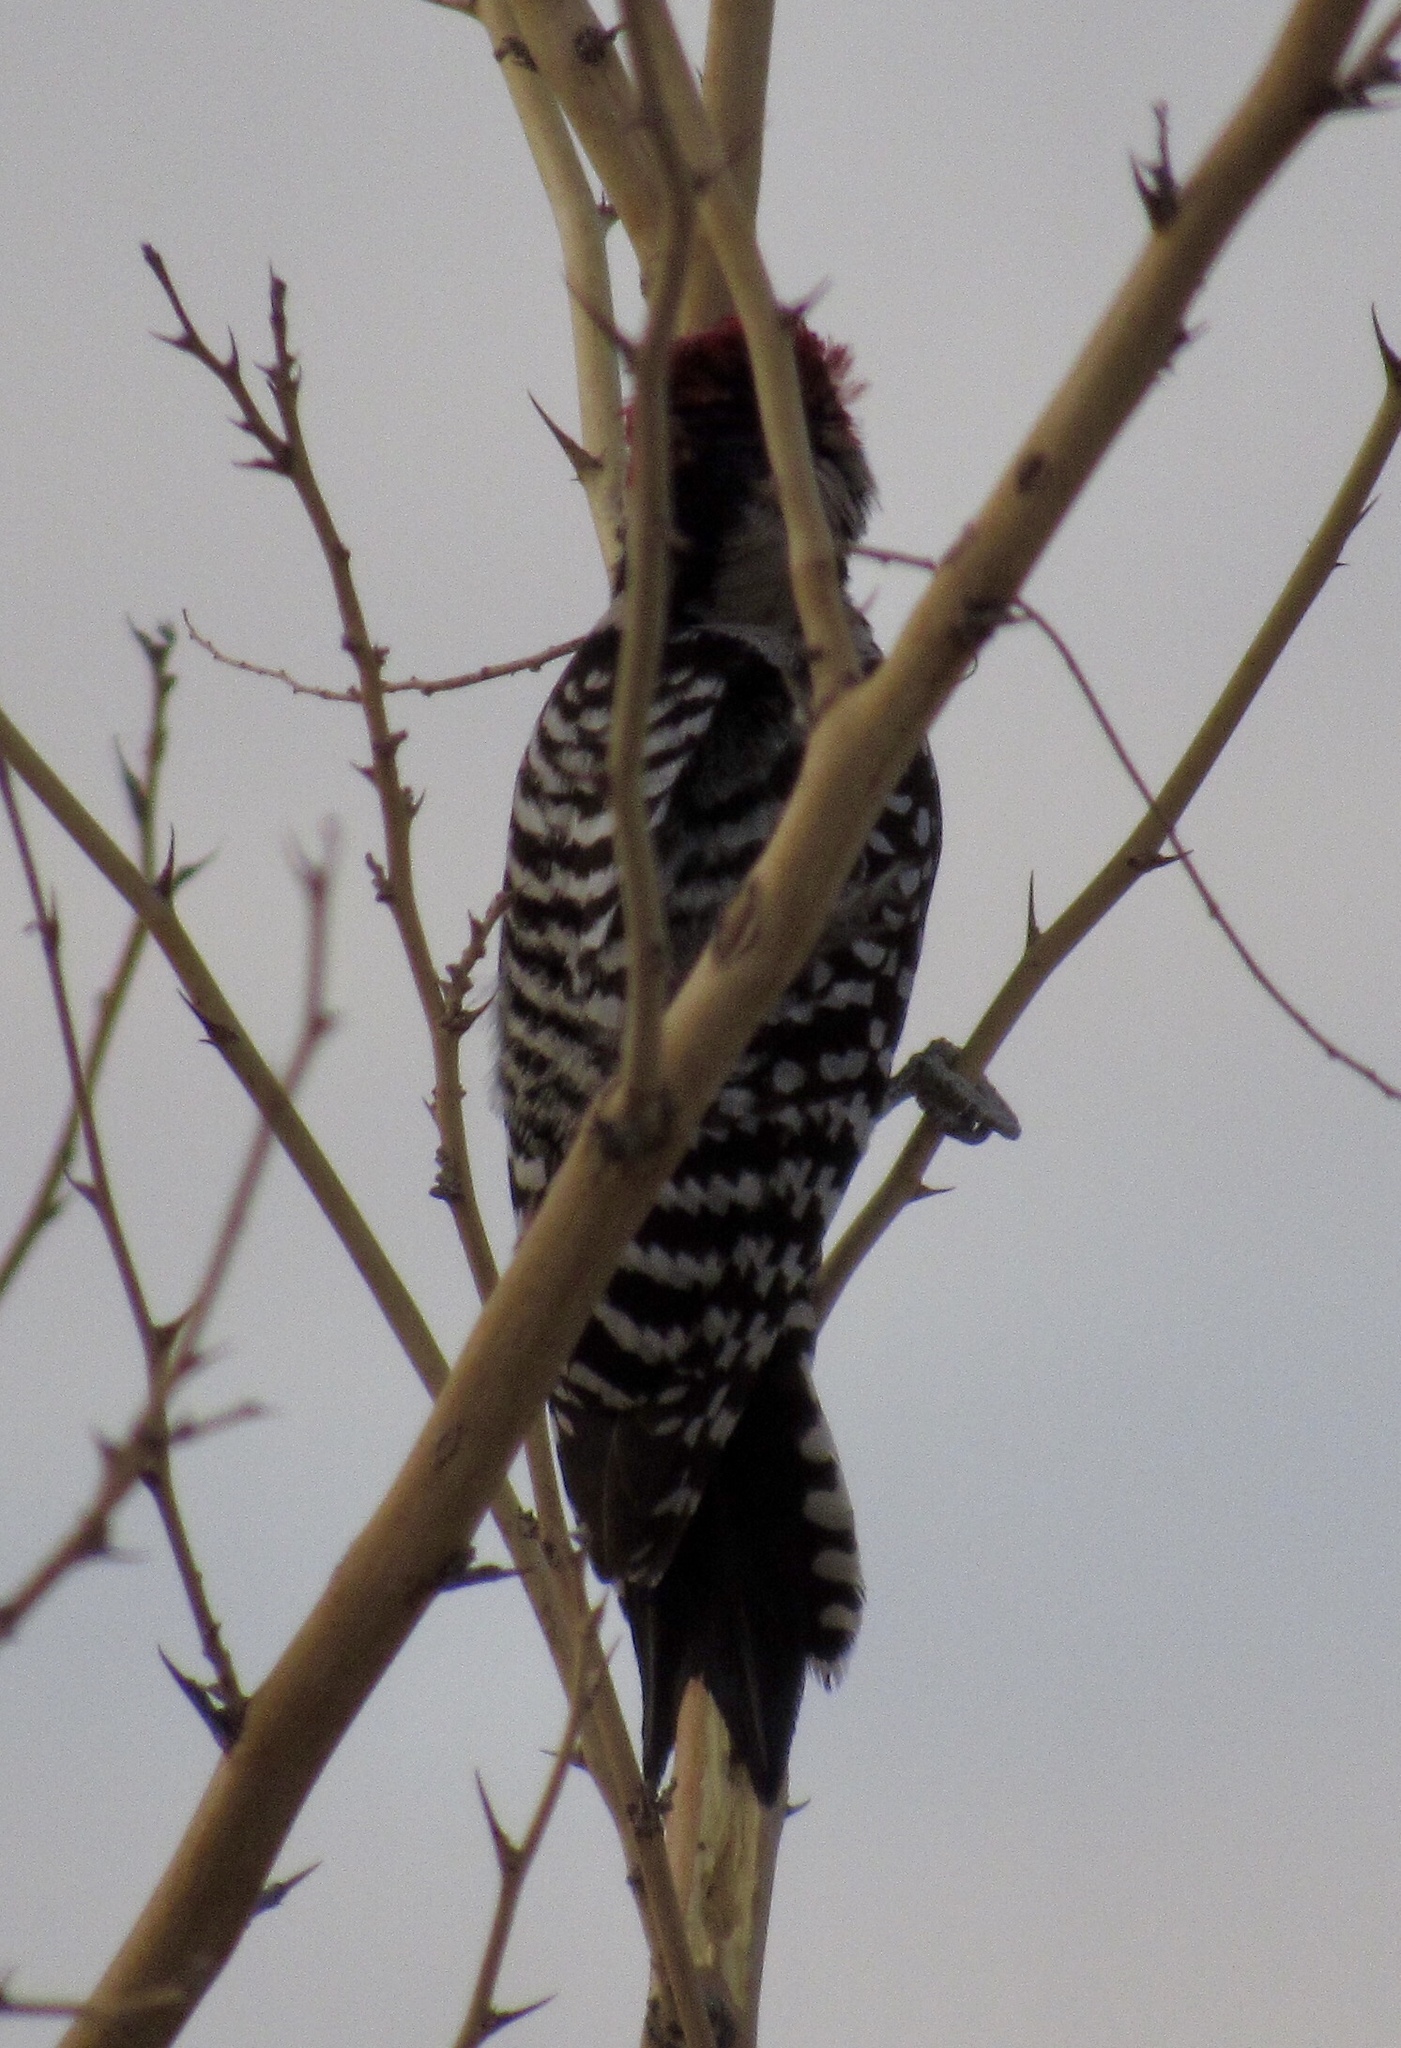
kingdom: Animalia
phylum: Chordata
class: Aves
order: Piciformes
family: Picidae
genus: Dryobates
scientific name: Dryobates scalaris
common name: Ladder-backed woodpecker
